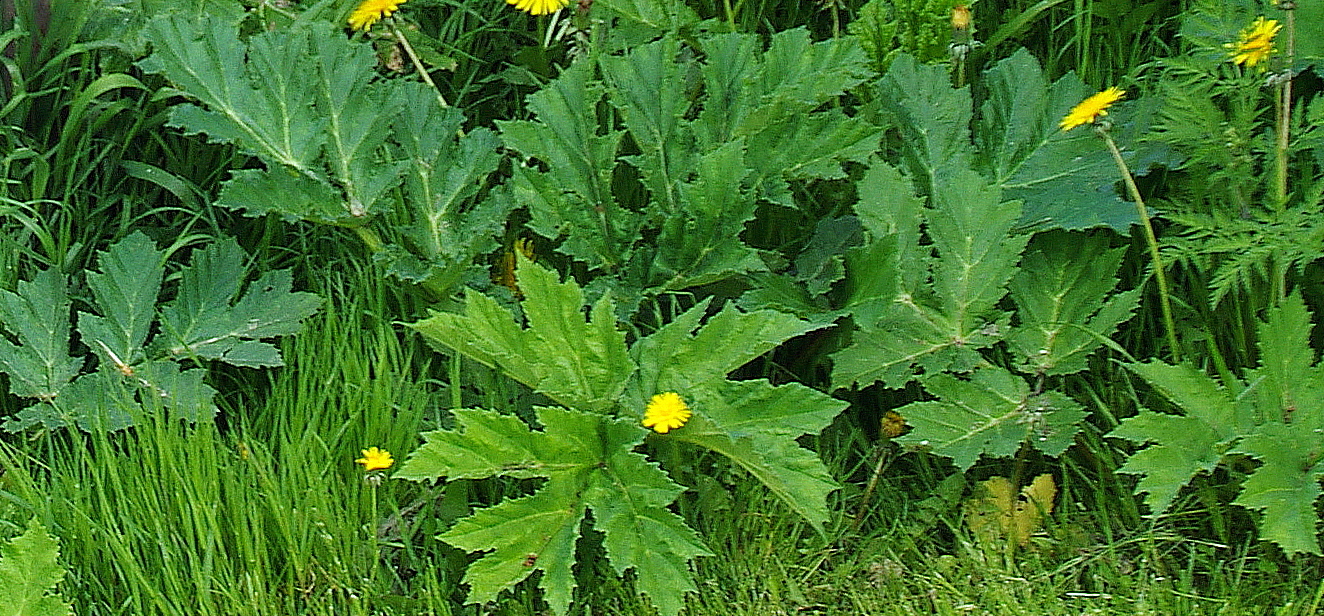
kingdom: Plantae
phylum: Tracheophyta
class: Magnoliopsida
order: Apiales
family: Apiaceae
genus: Heracleum
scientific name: Heracleum sosnowskyi
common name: Sosnowsky's hogweed
